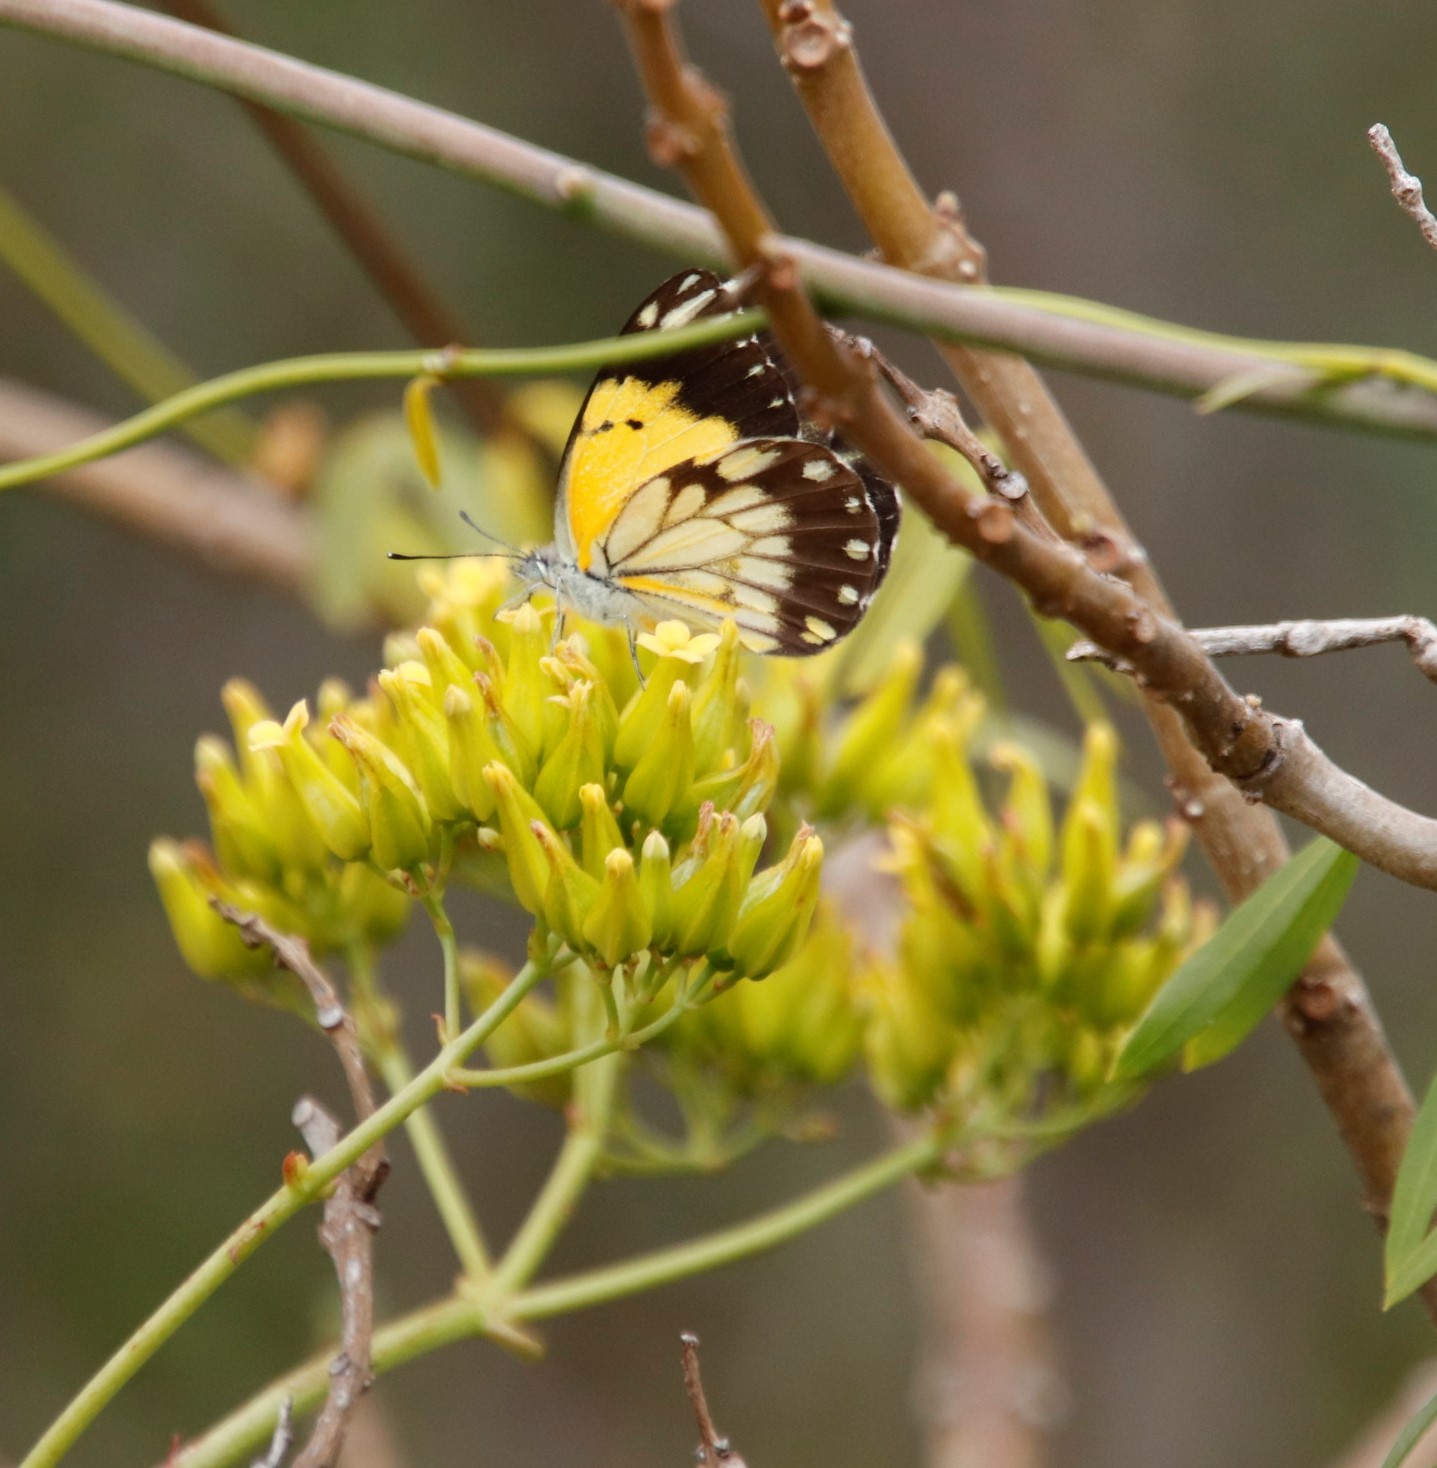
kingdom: Animalia
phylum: Arthropoda
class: Insecta
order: Lepidoptera
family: Pieridae
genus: Belenois
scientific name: Belenois creona
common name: African caper white
